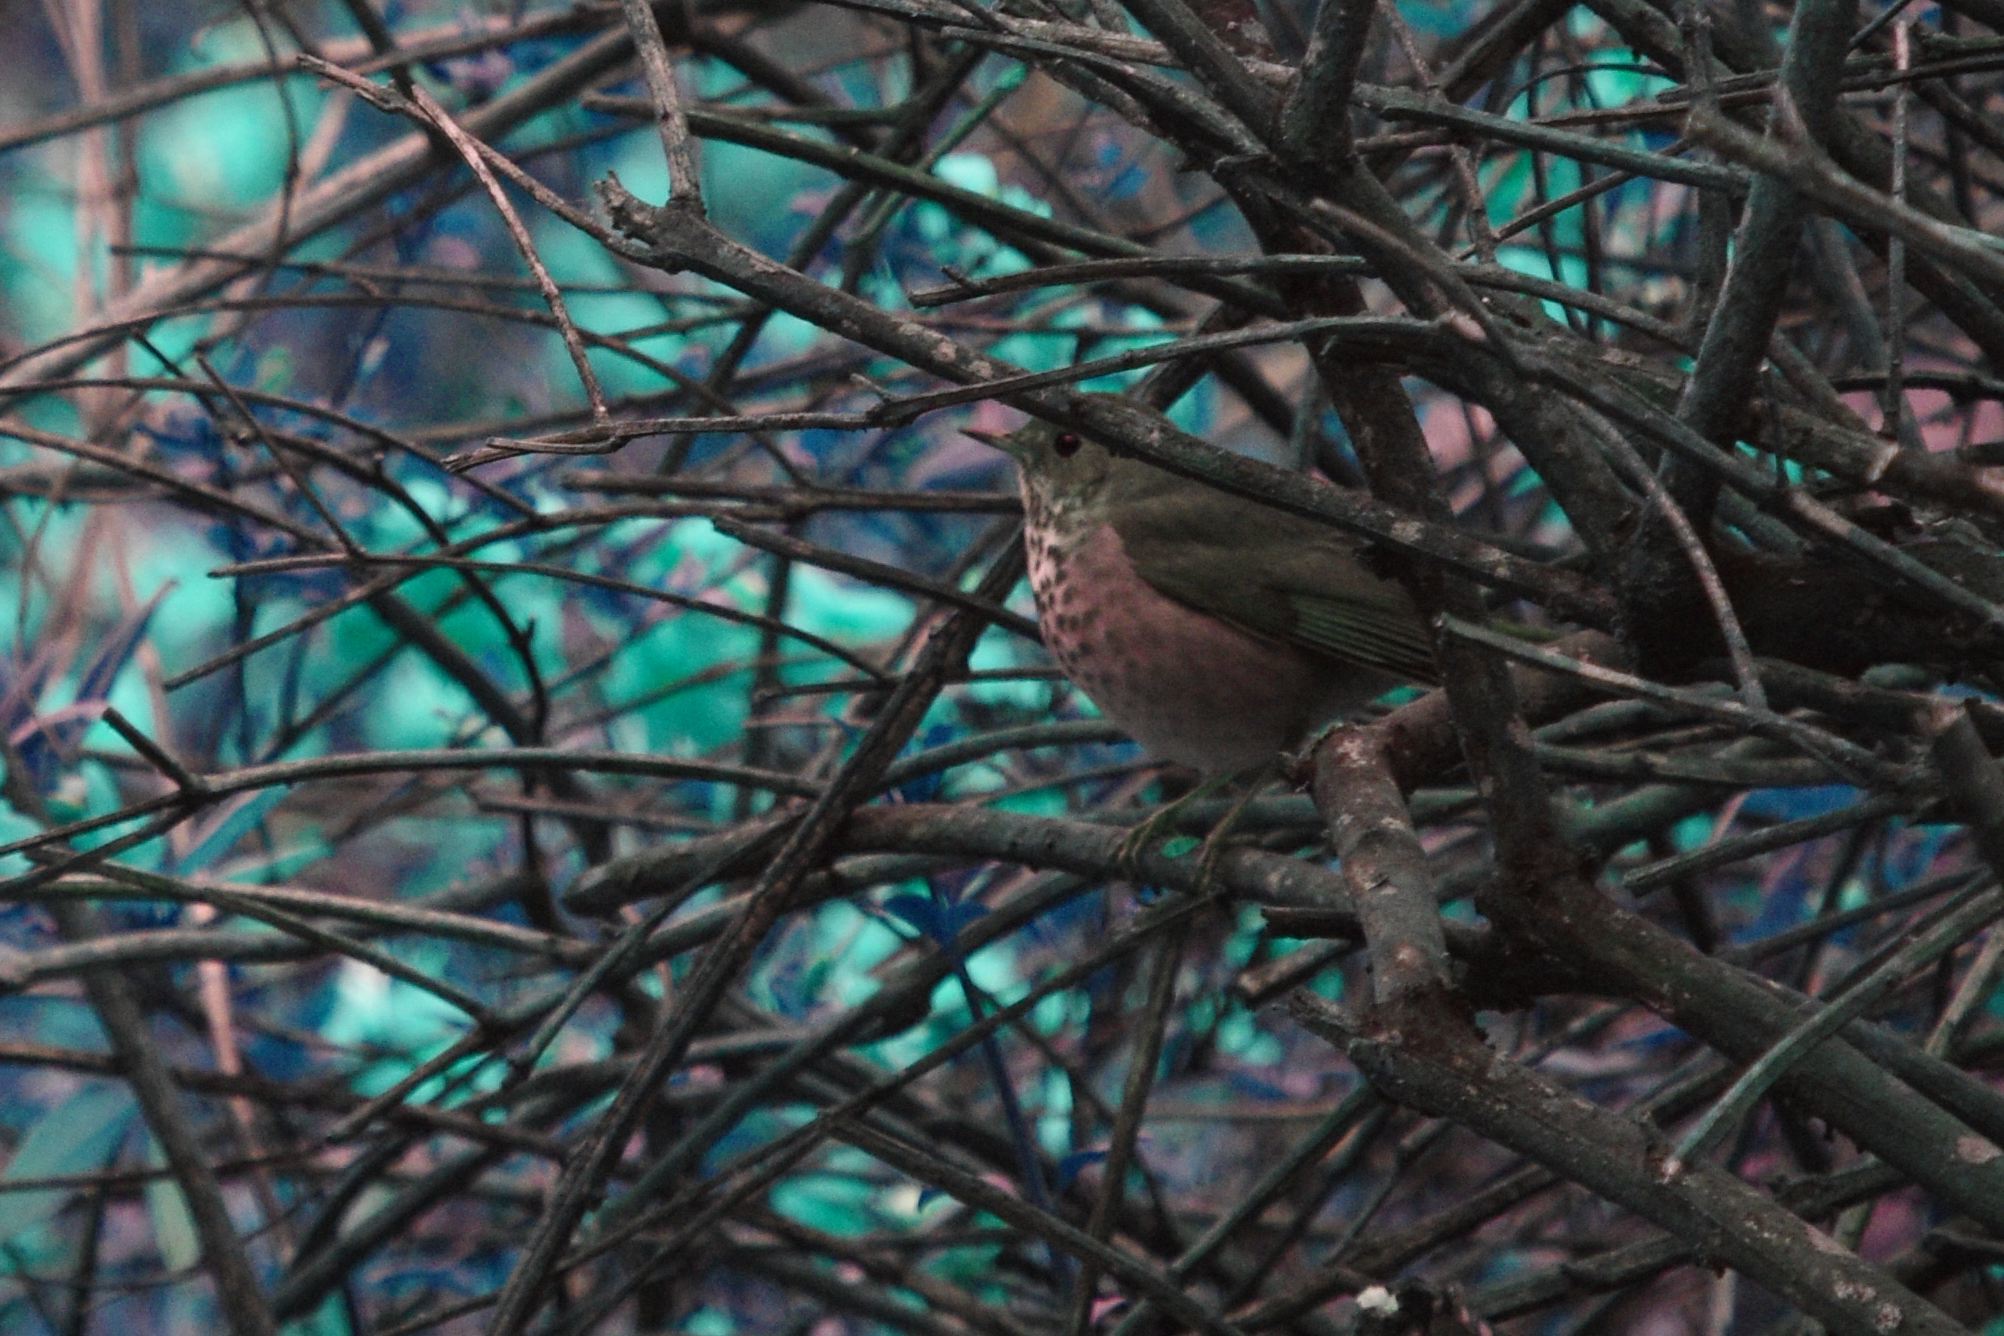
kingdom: Animalia
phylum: Chordata
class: Aves
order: Passeriformes
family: Turdidae
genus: Catharus
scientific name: Catharus guttatus
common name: Hermit thrush
